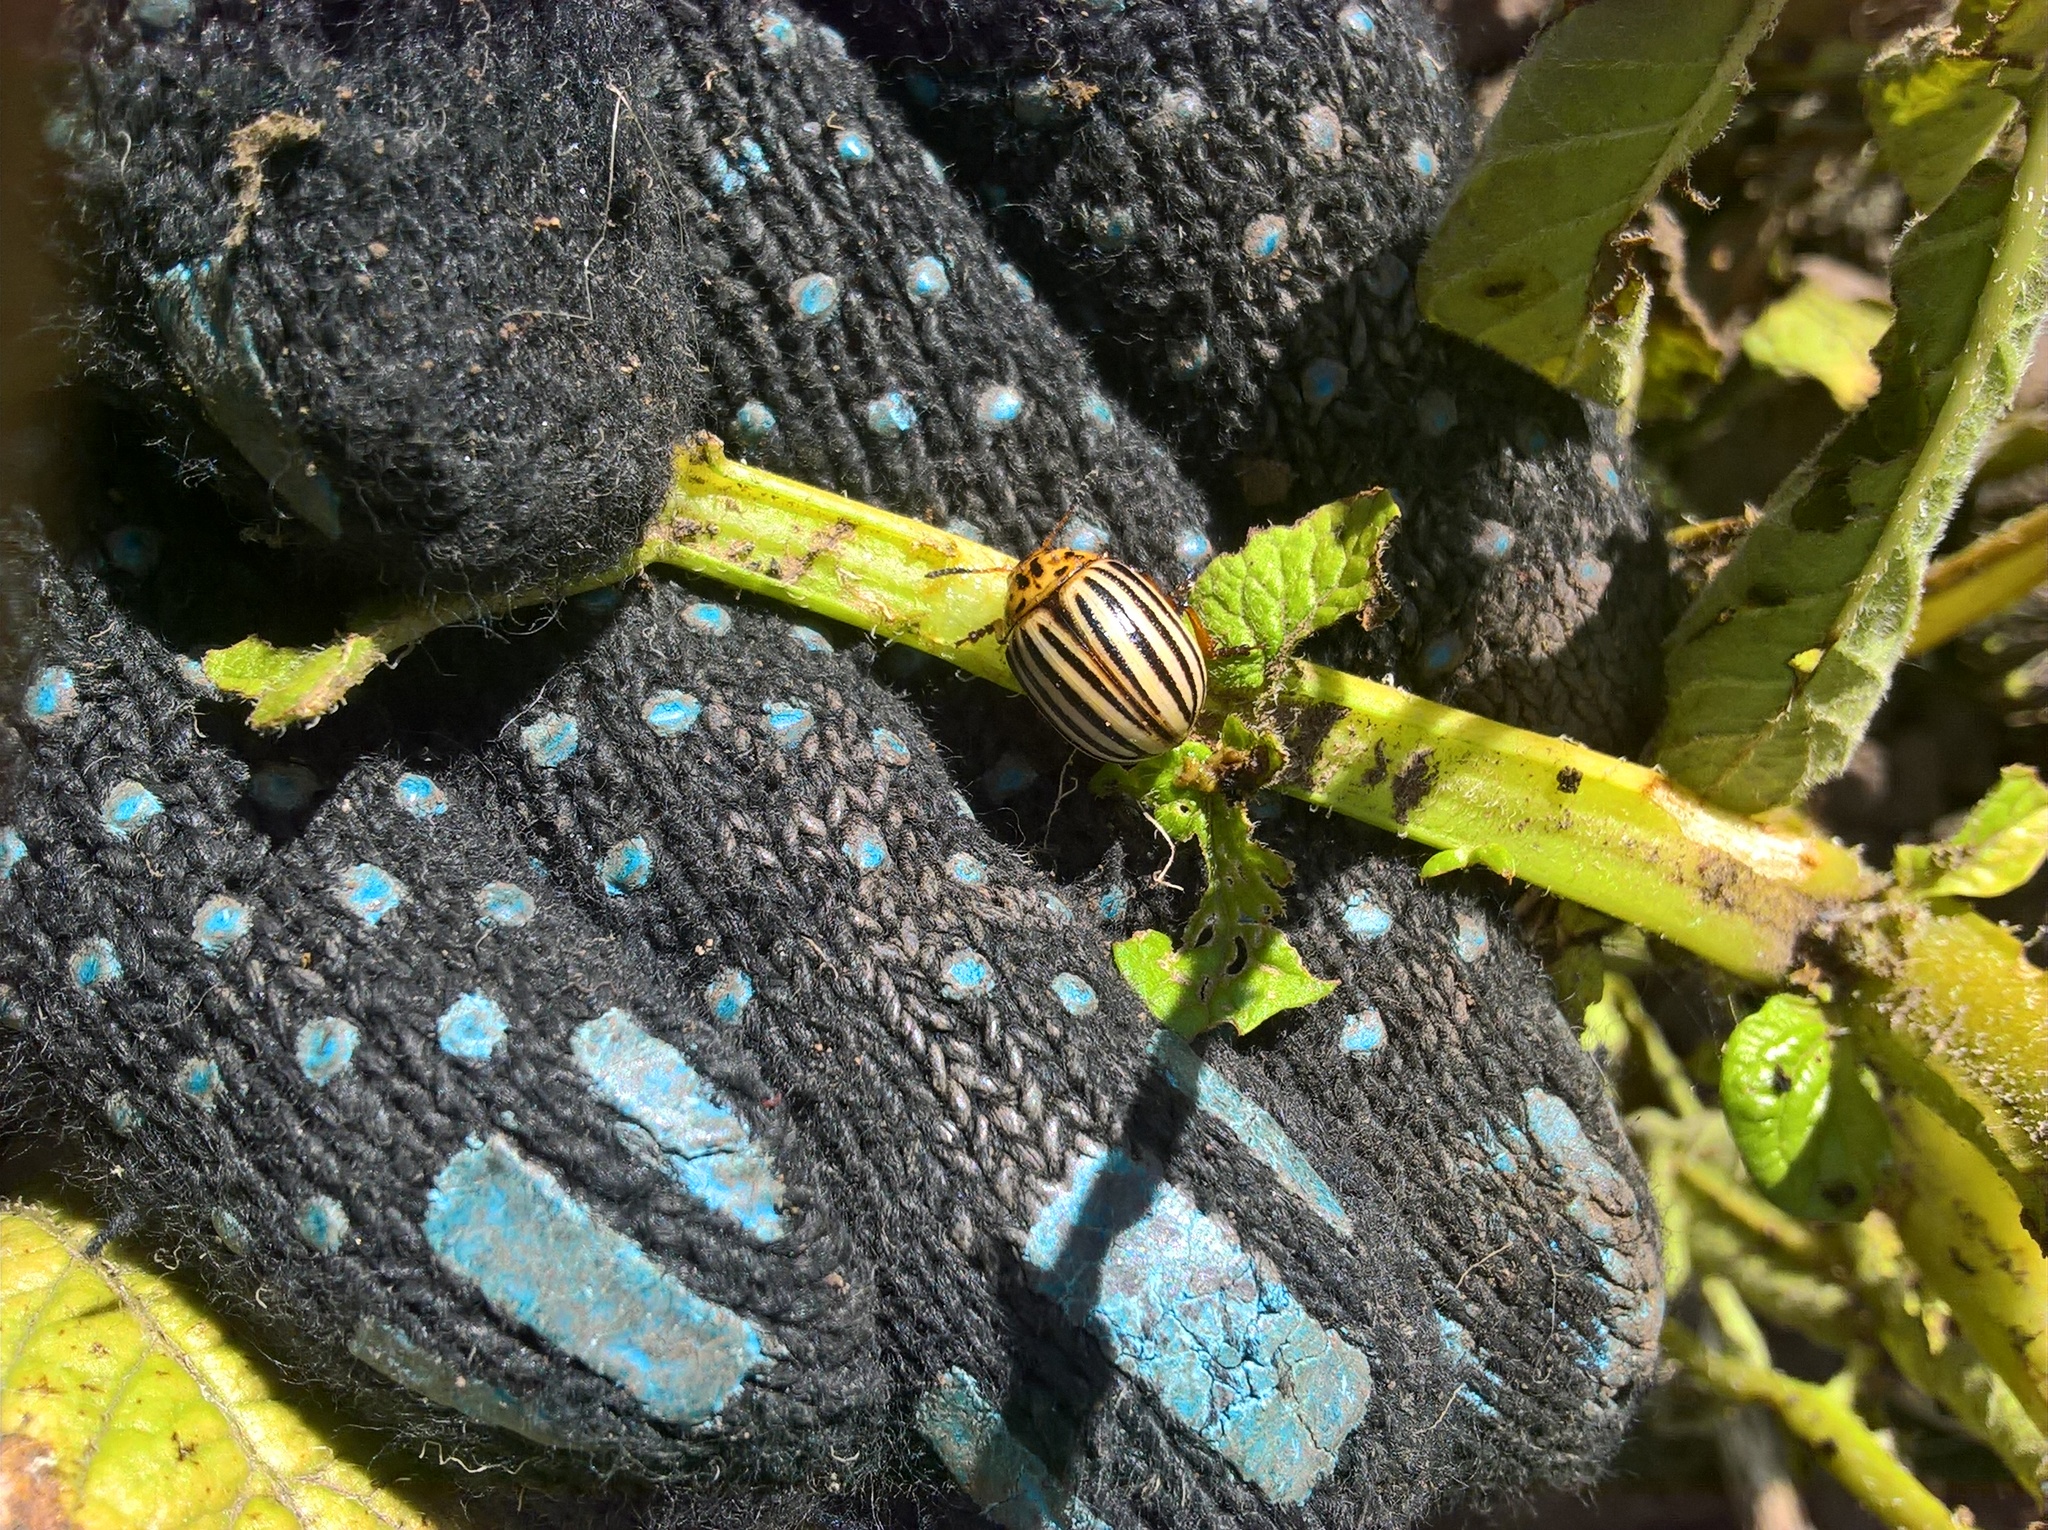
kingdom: Animalia
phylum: Arthropoda
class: Insecta
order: Coleoptera
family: Chrysomelidae
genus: Leptinotarsa
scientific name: Leptinotarsa decemlineata
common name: Colorado potato beetle
